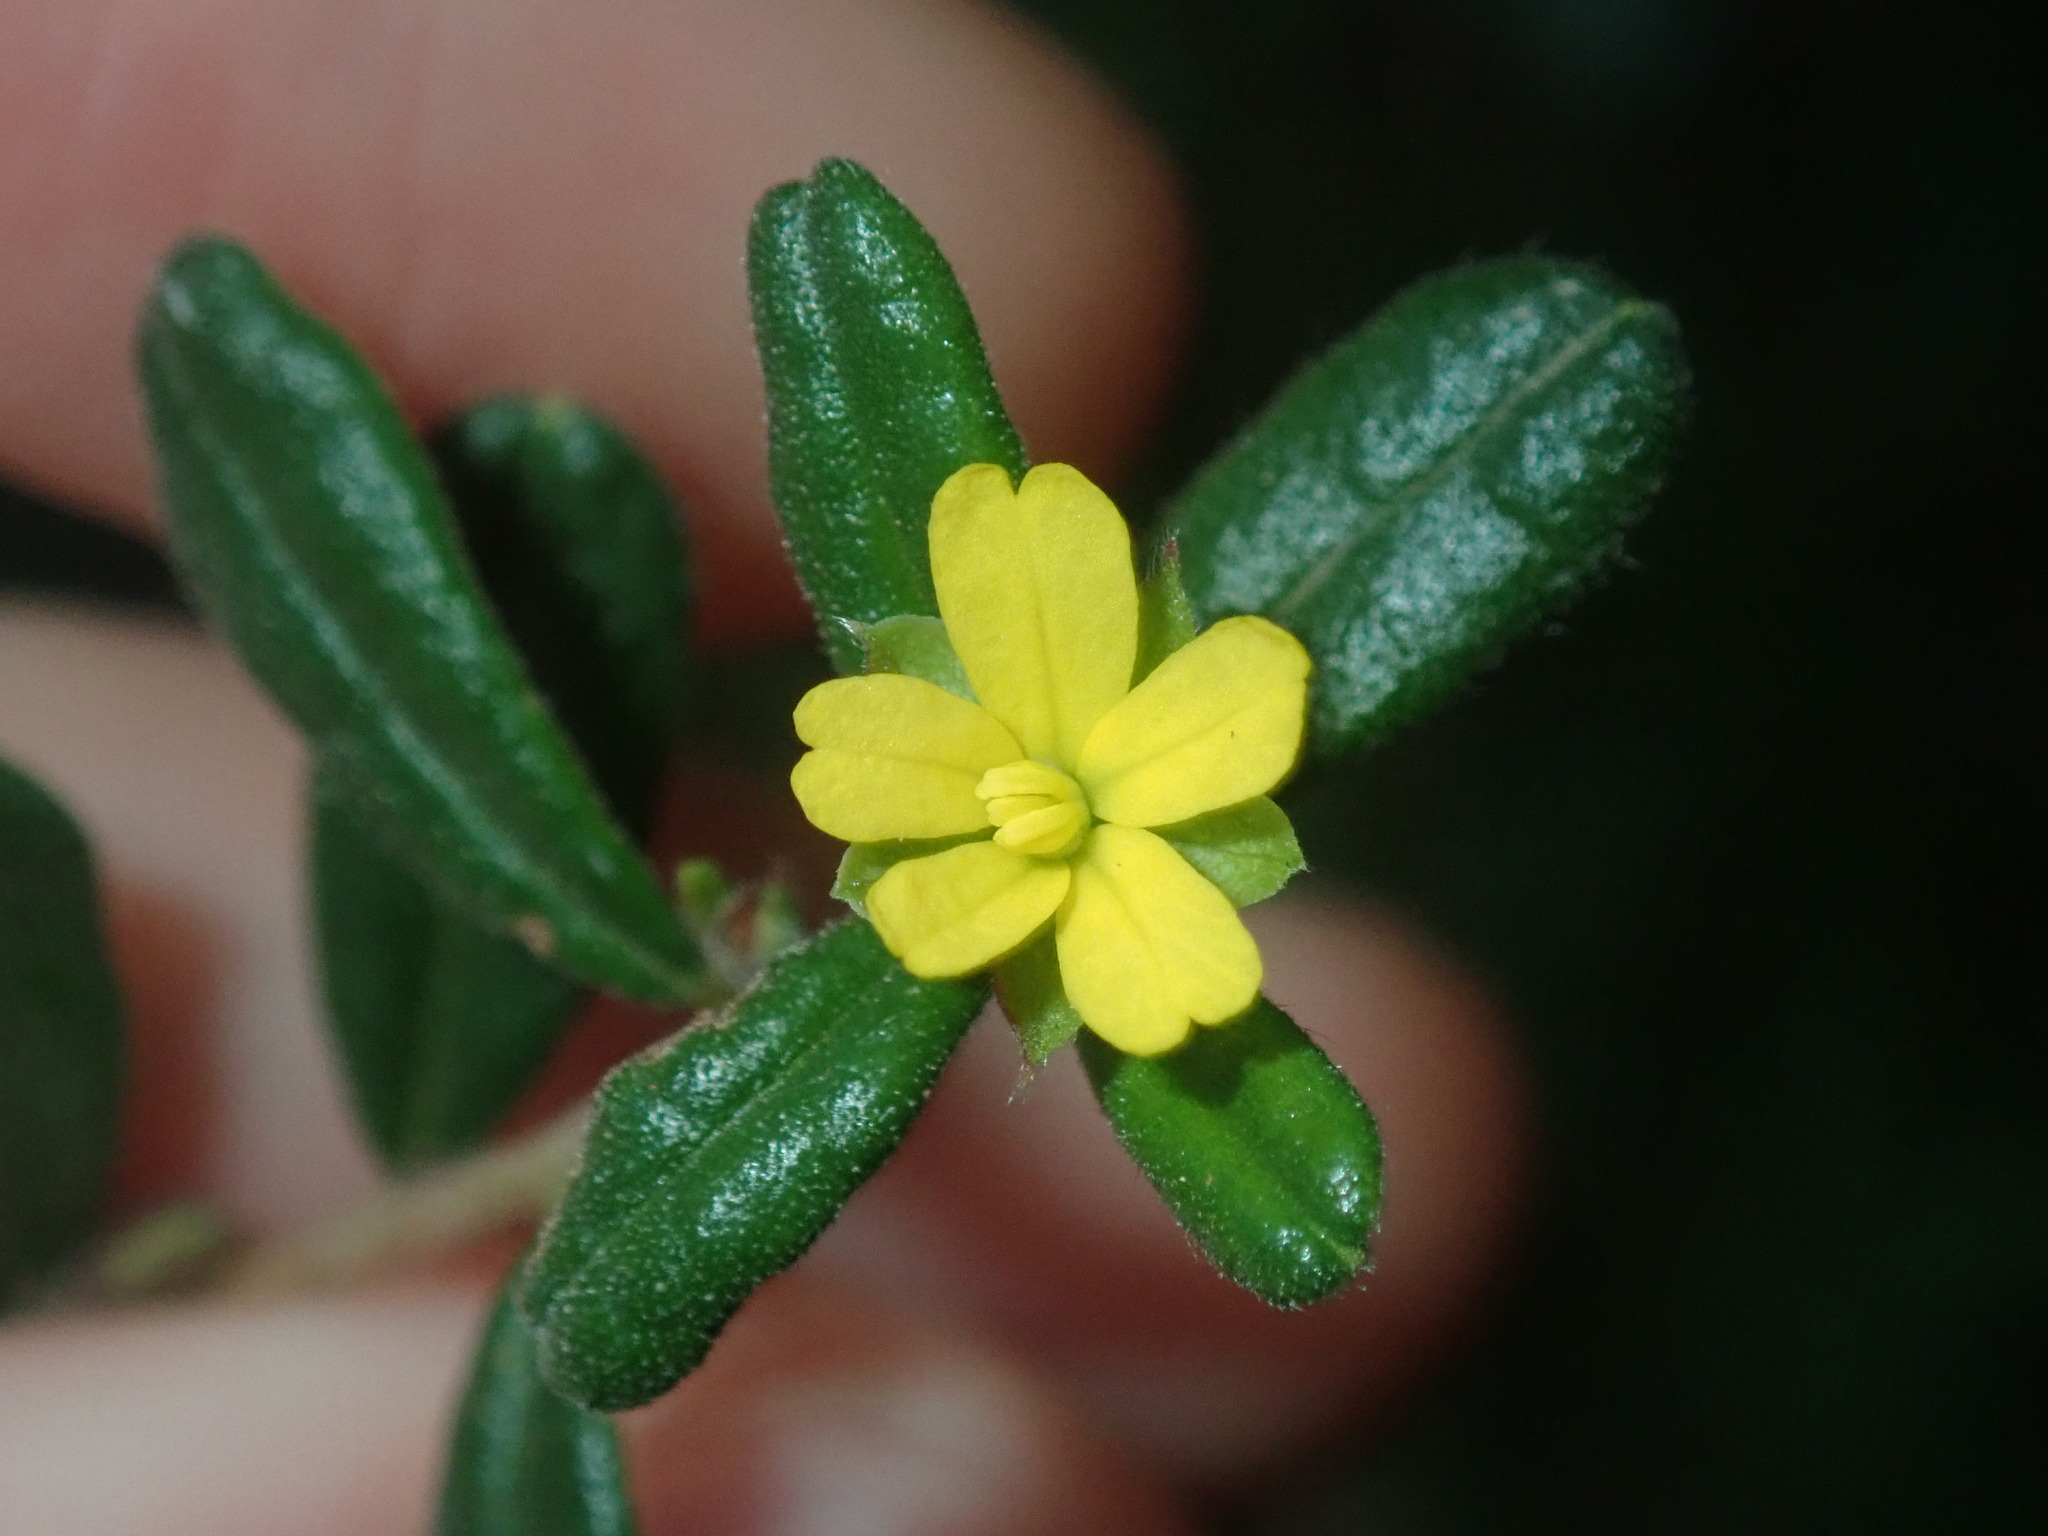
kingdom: Plantae
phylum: Tracheophyta
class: Magnoliopsida
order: Dilleniales
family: Dilleniaceae
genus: Hibbertia
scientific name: Hibbertia aspera
